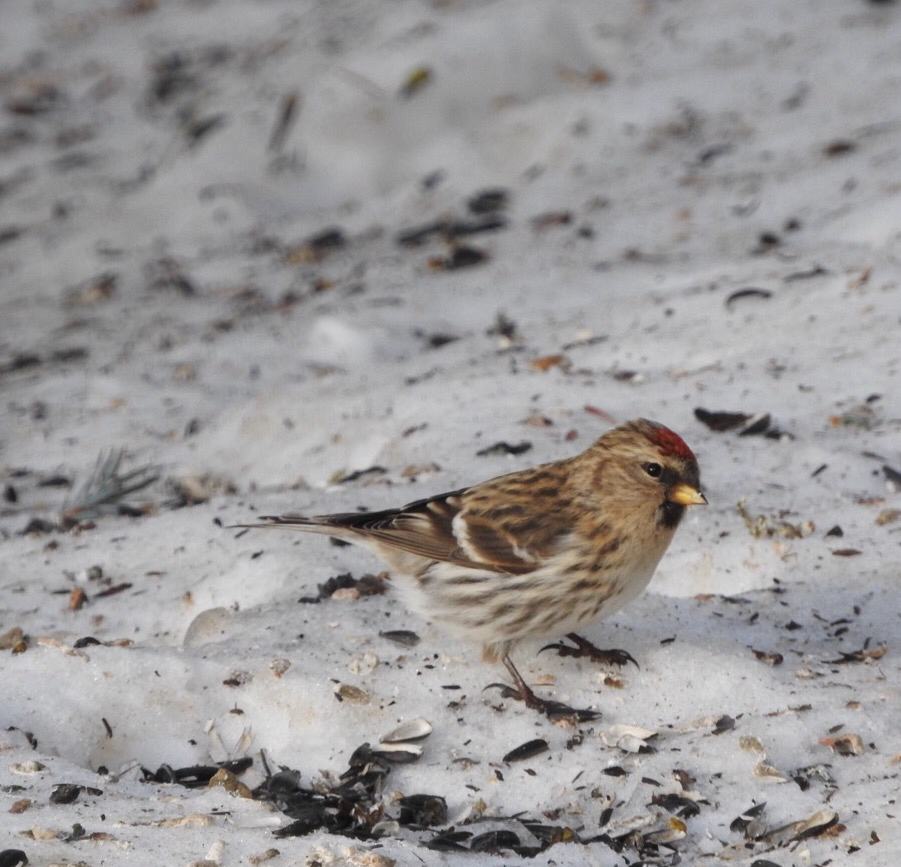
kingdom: Animalia
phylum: Chordata
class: Aves
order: Passeriformes
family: Fringillidae
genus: Acanthis
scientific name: Acanthis flammea
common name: Common redpoll
